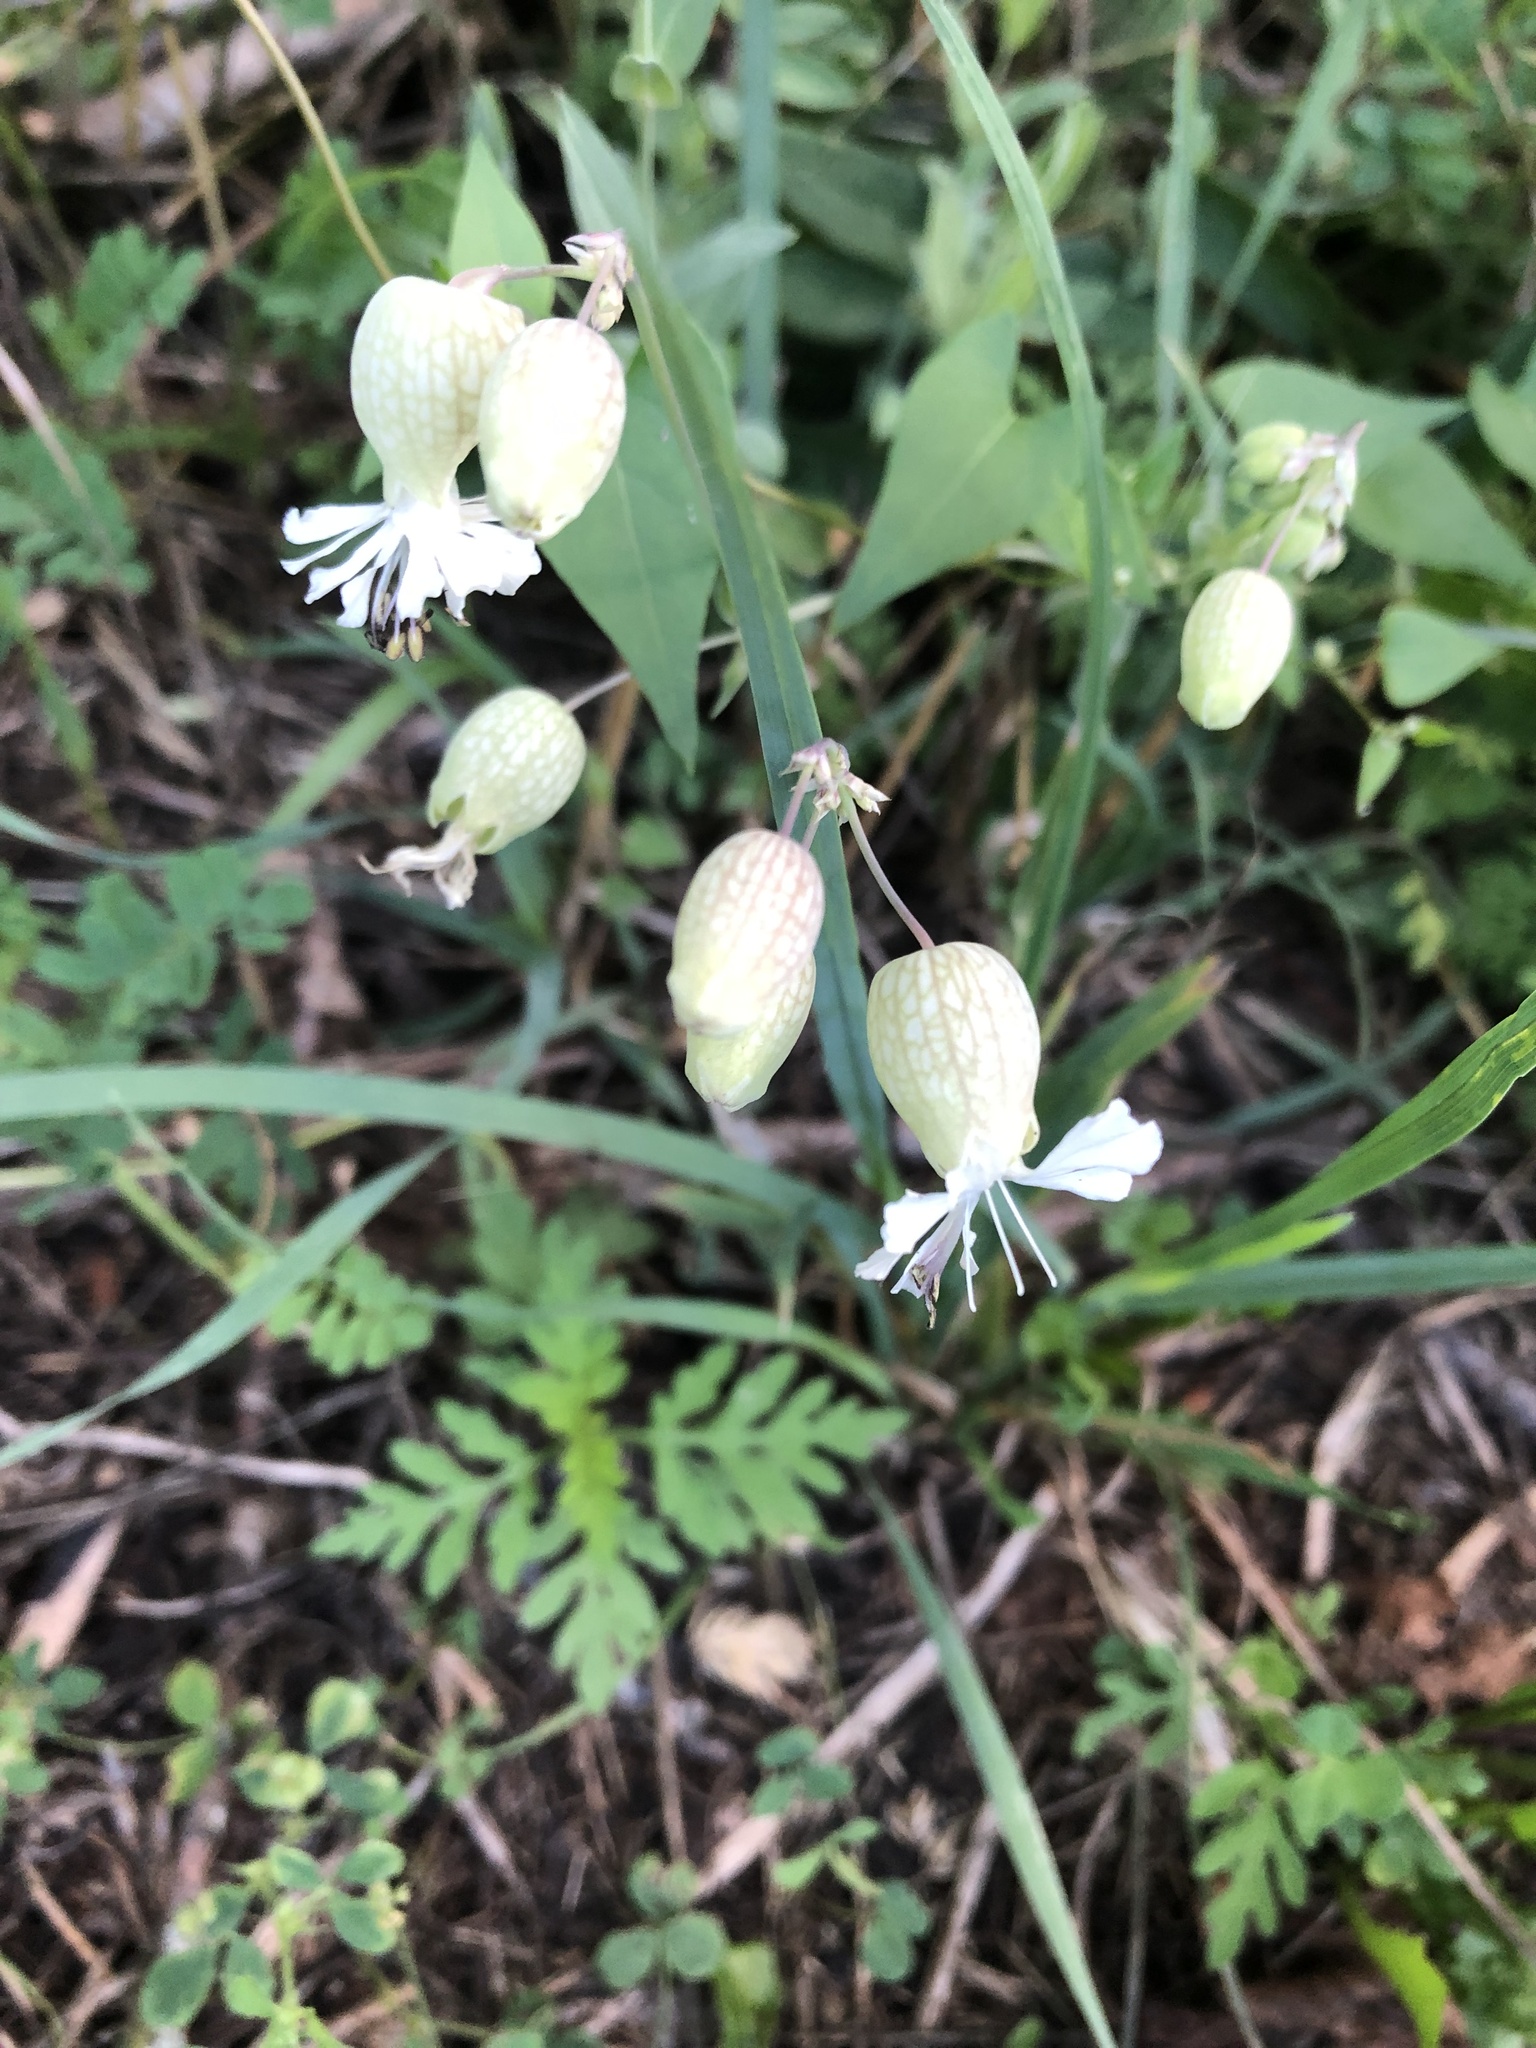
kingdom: Plantae
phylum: Tracheophyta
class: Magnoliopsida
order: Caryophyllales
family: Caryophyllaceae
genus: Silene
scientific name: Silene vulgaris
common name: Bladder campion
